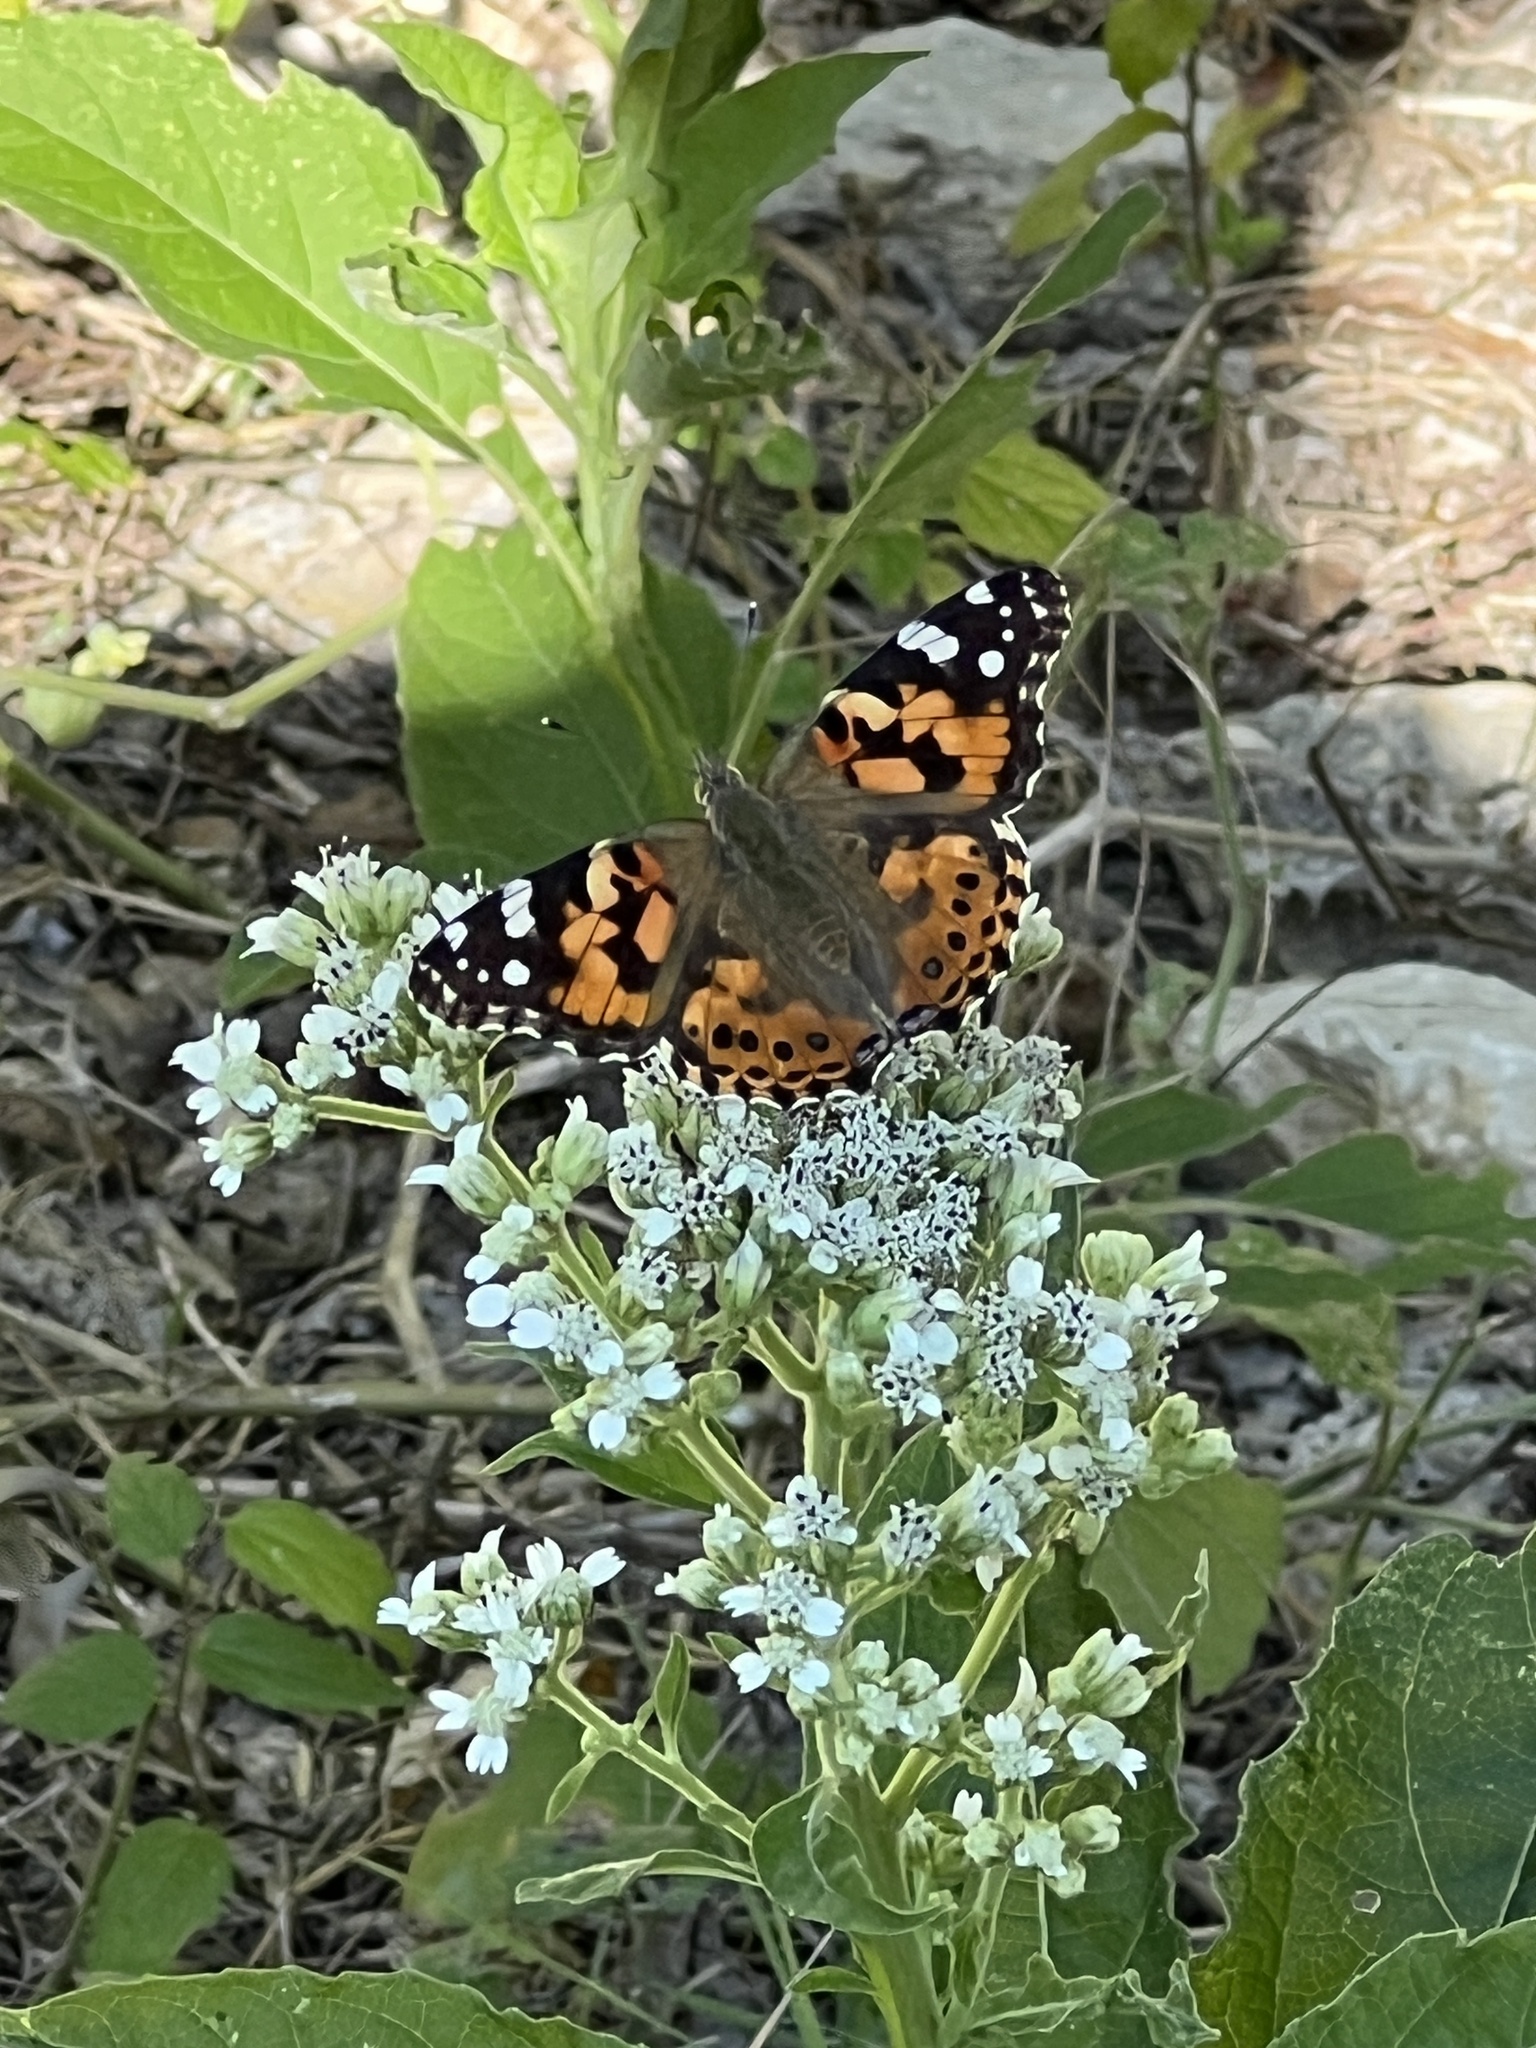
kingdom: Animalia
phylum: Arthropoda
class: Insecta
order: Lepidoptera
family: Nymphalidae
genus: Vanessa
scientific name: Vanessa cardui
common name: Painted lady
